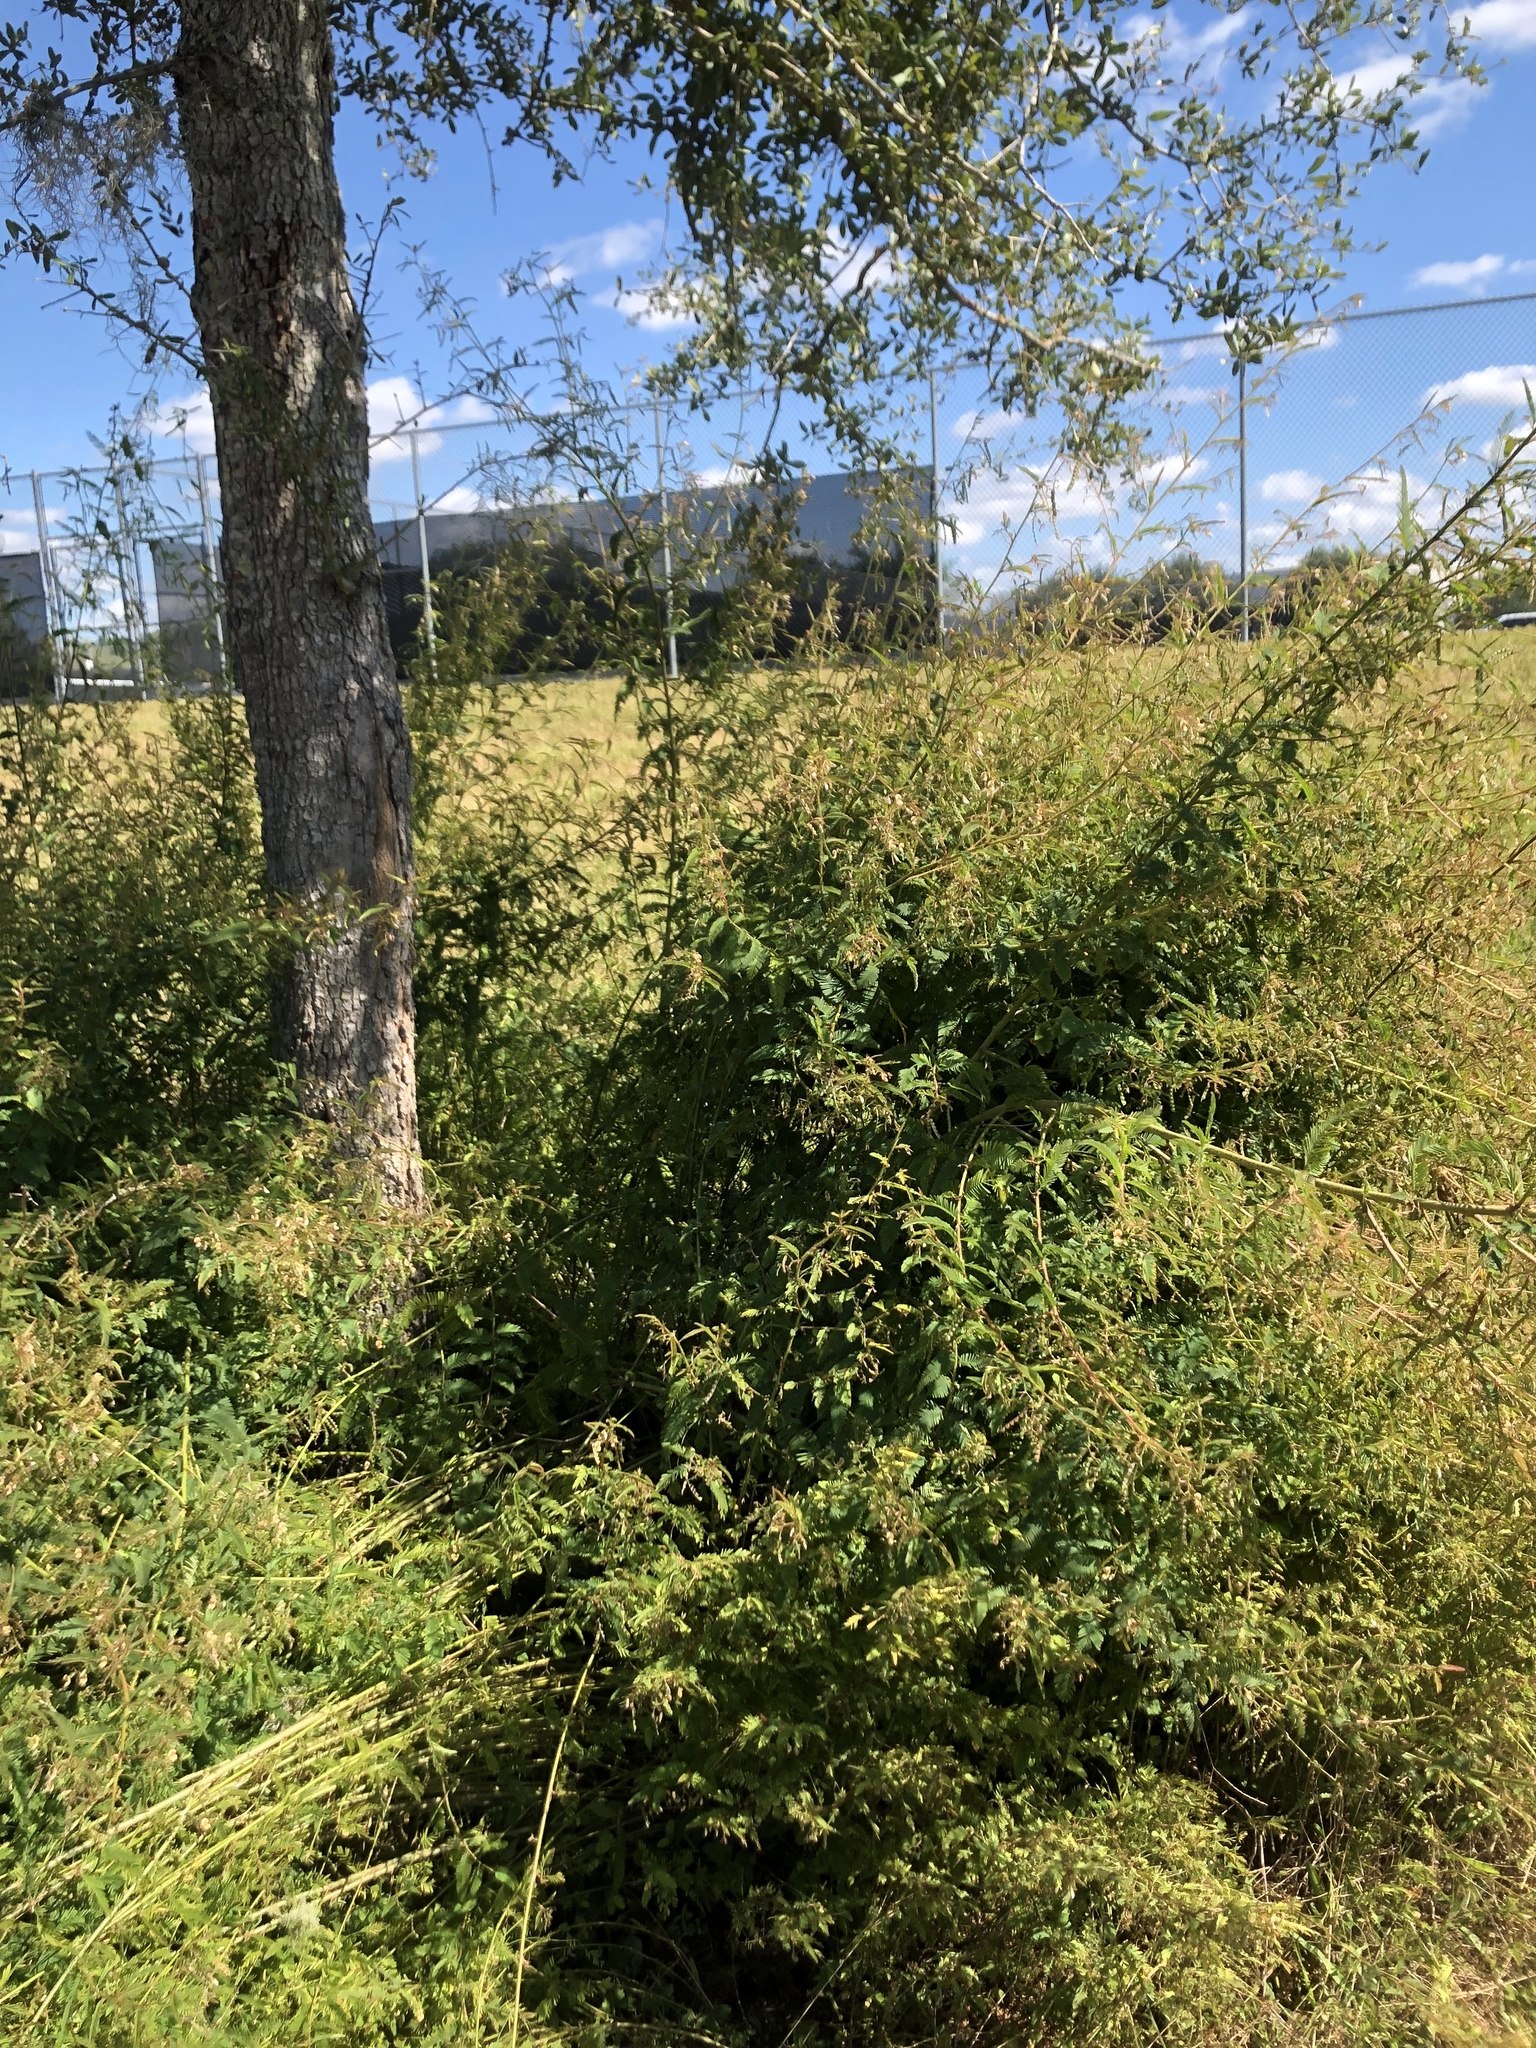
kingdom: Plantae
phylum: Tracheophyta
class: Magnoliopsida
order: Fabales
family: Fabaceae
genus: Aeschynomene
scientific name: Aeschynomene americana
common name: Joint-vetch
